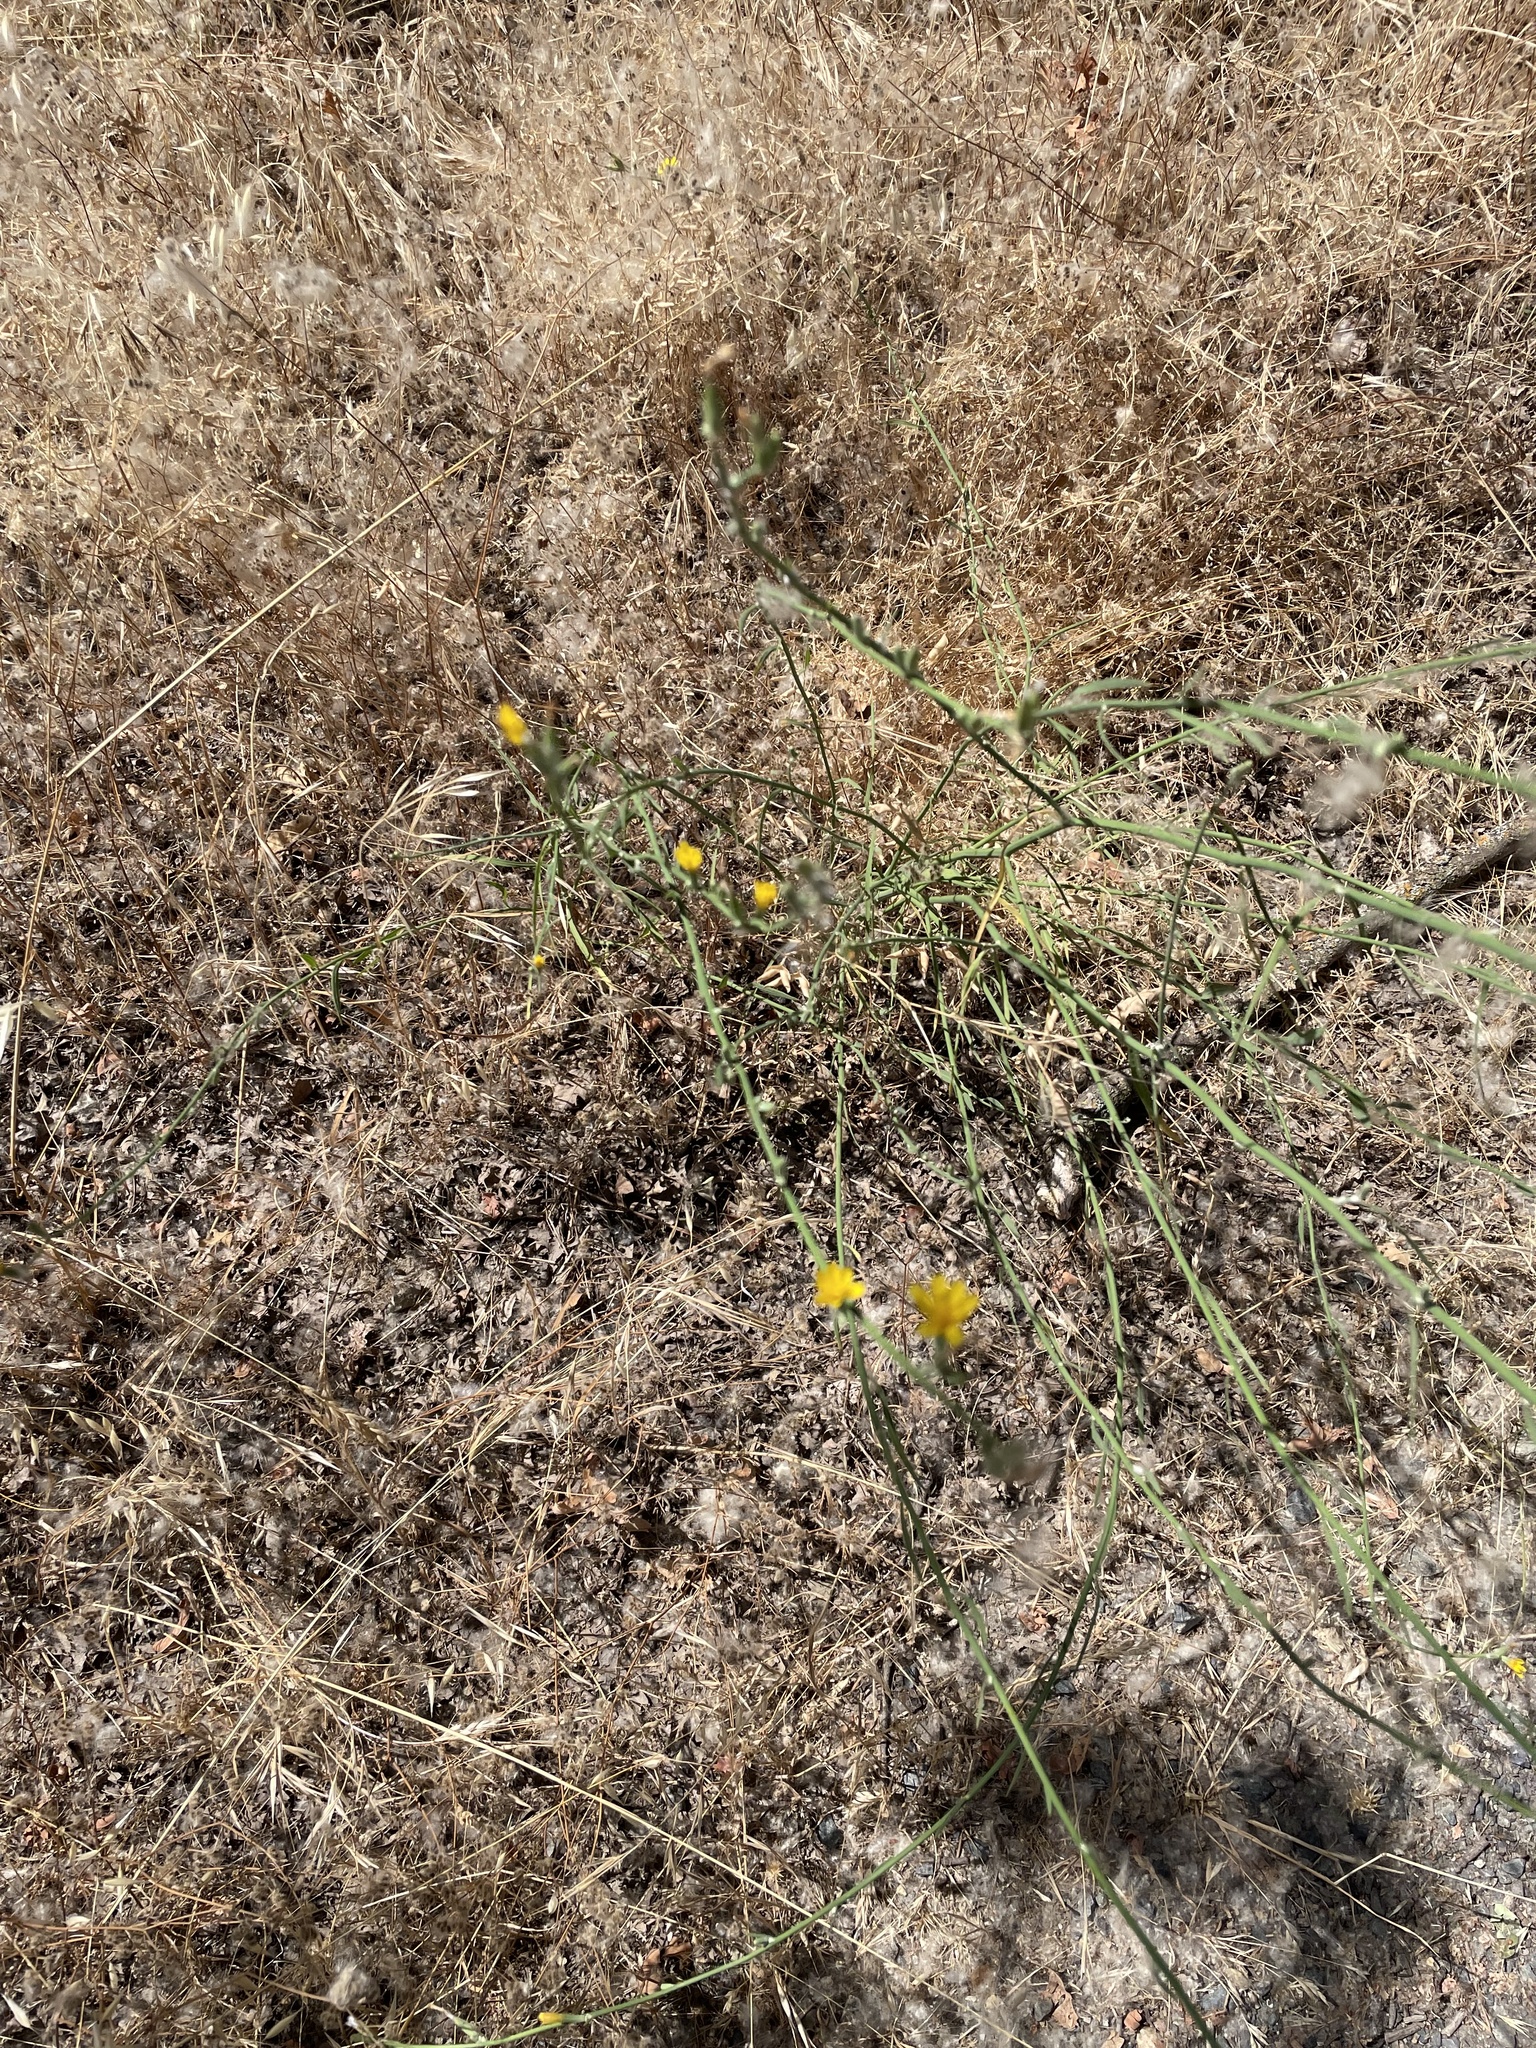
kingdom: Plantae
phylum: Tracheophyta
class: Magnoliopsida
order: Asterales
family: Asteraceae
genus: Chondrilla
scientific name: Chondrilla juncea
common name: Skeleton weed
